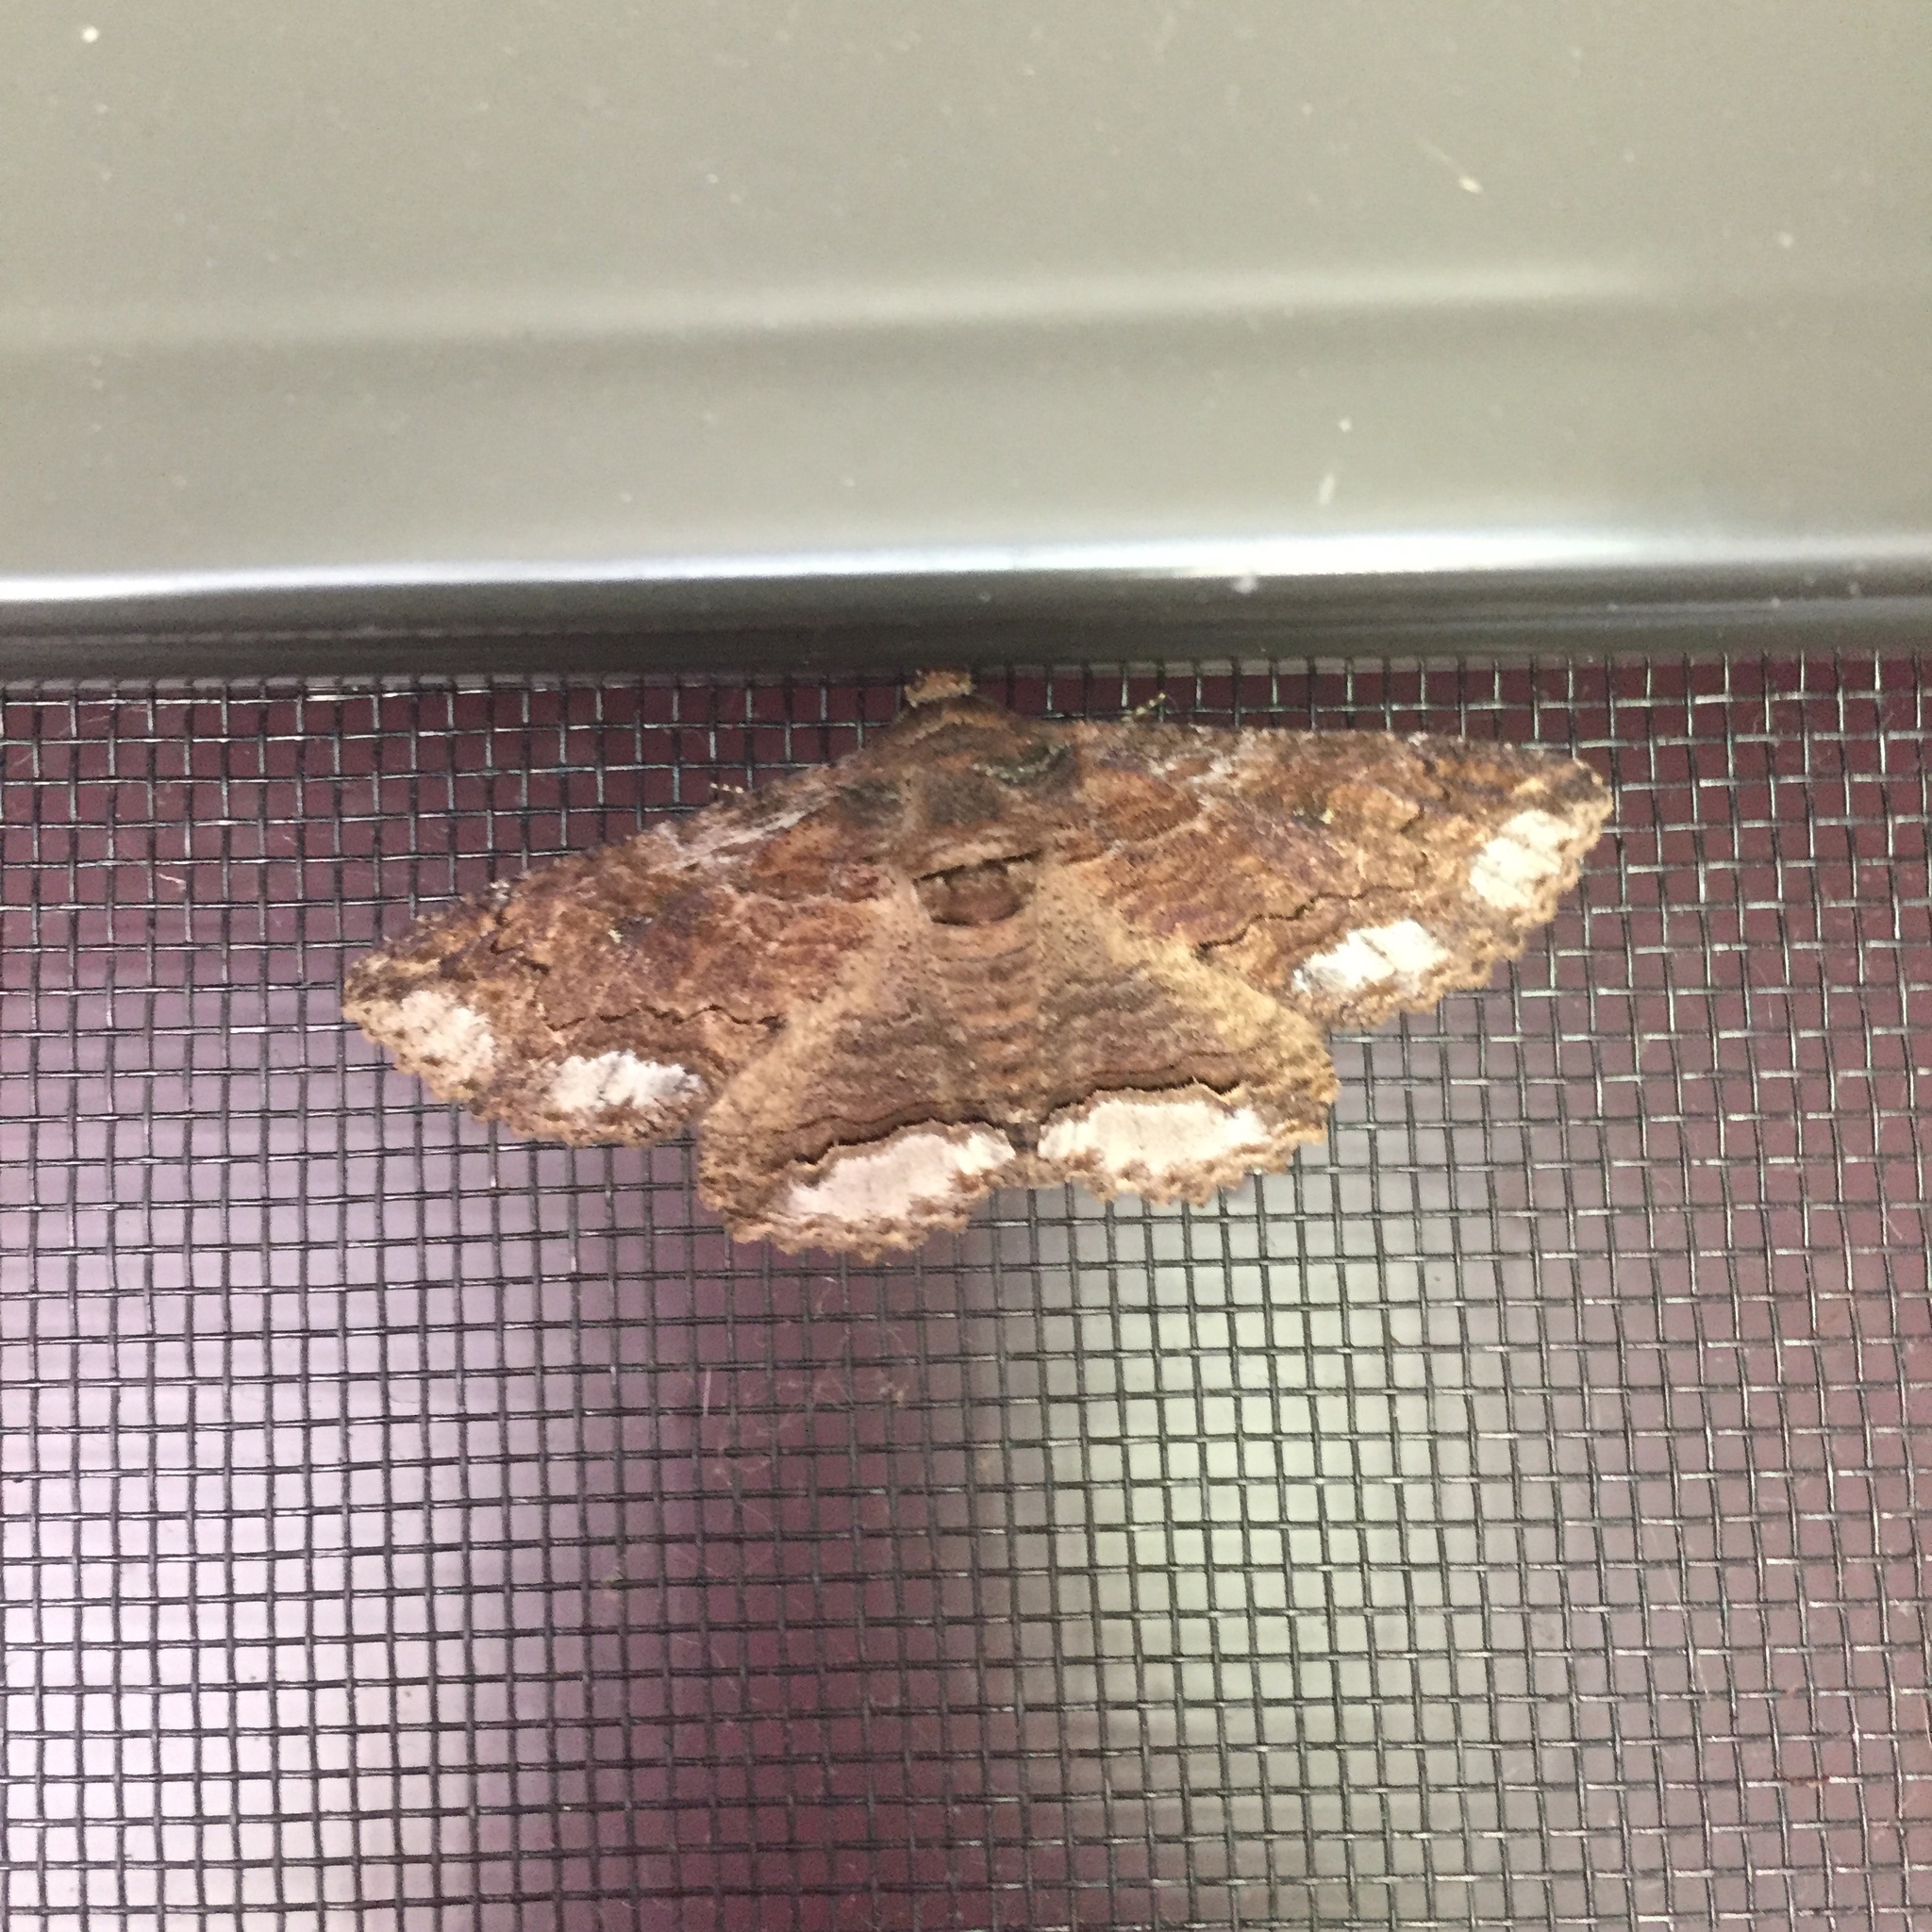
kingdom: Animalia
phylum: Arthropoda
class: Insecta
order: Lepidoptera
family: Erebidae
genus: Zale
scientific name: Zale lunata
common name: Lunate zale moth
